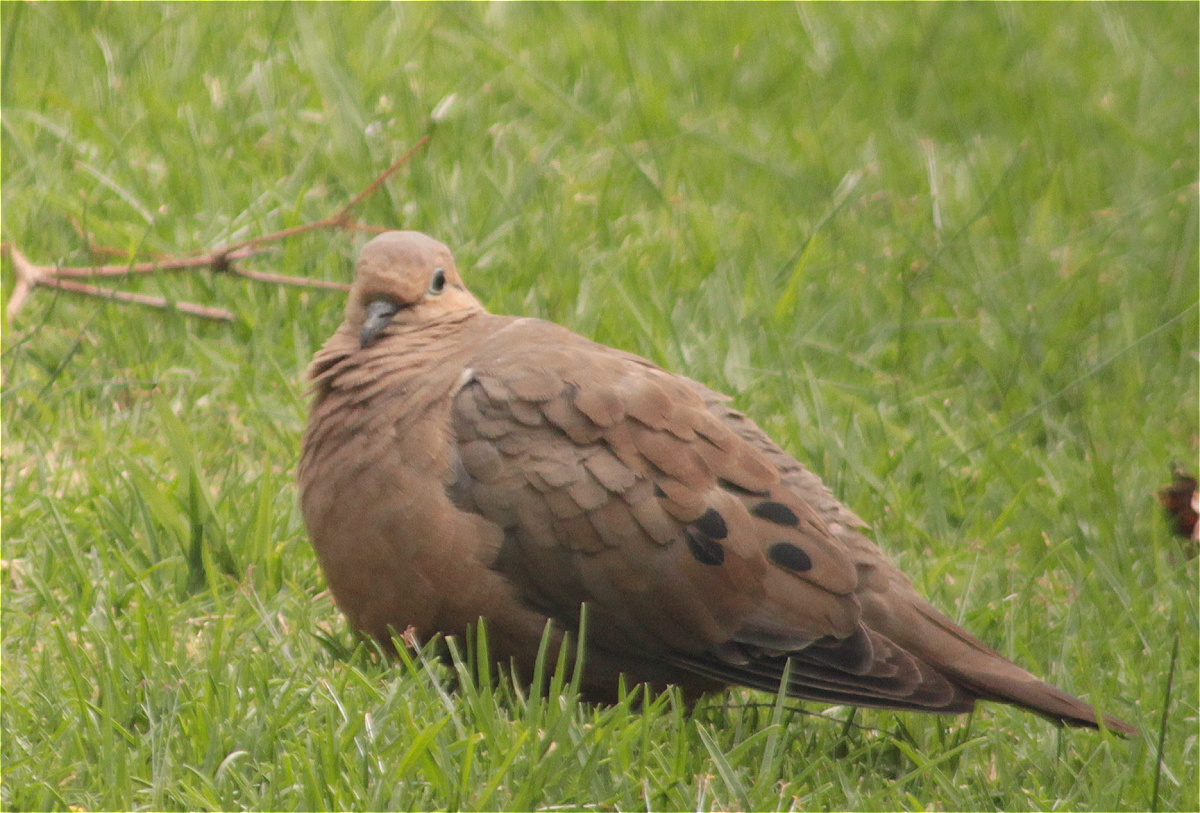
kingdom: Animalia
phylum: Chordata
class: Aves
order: Columbiformes
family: Columbidae
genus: Zenaida
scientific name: Zenaida auriculata
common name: Eared dove
